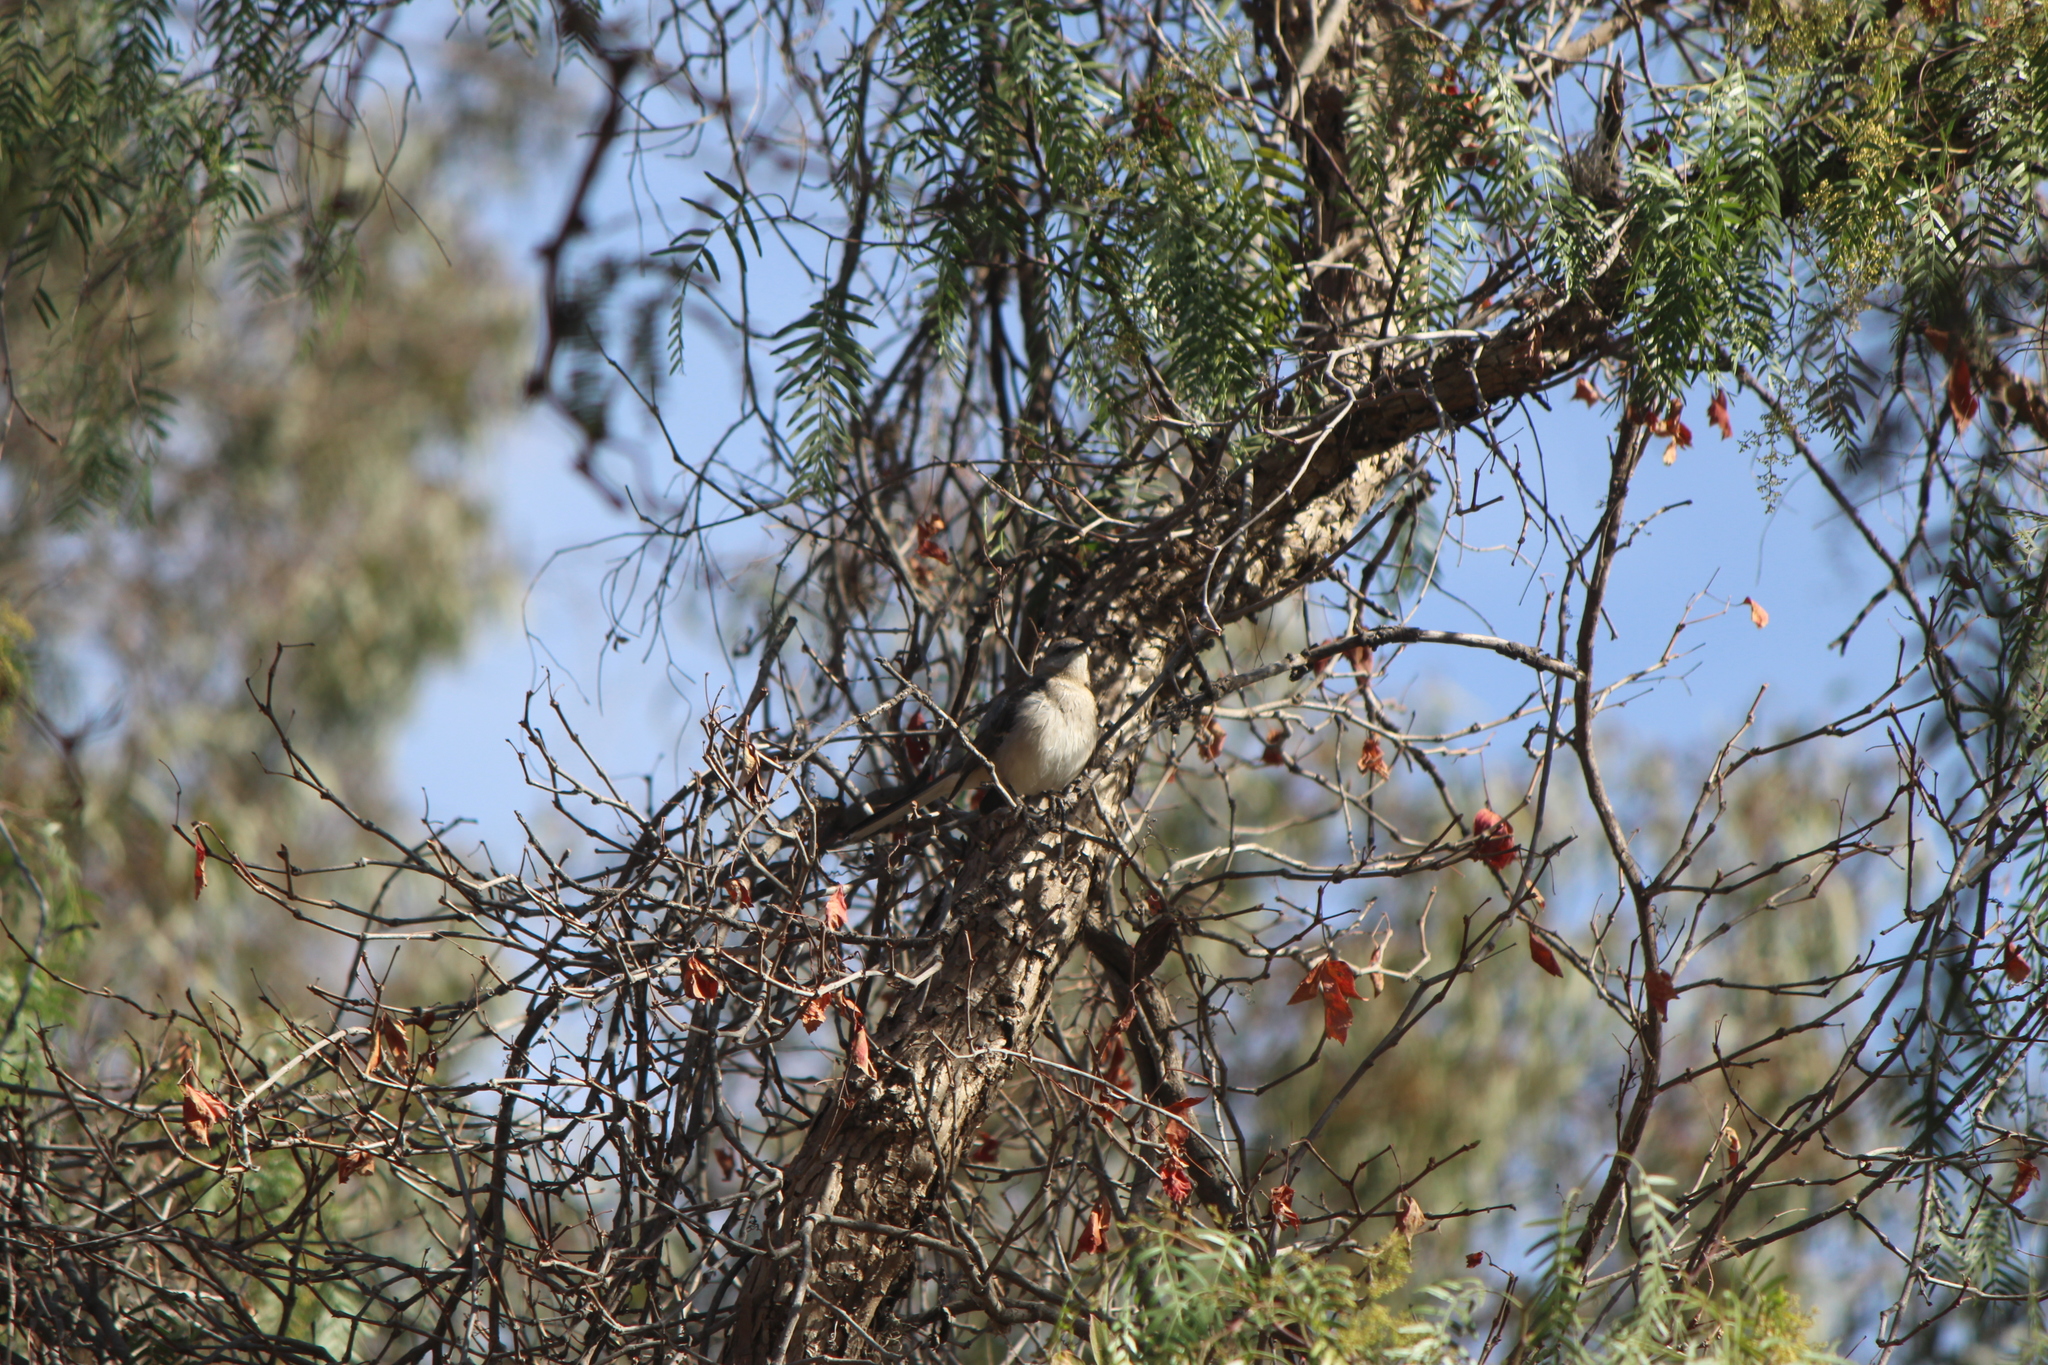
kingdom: Animalia
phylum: Chordata
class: Aves
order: Passeriformes
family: Mimidae
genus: Mimus
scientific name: Mimus polyglottos
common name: Northern mockingbird
